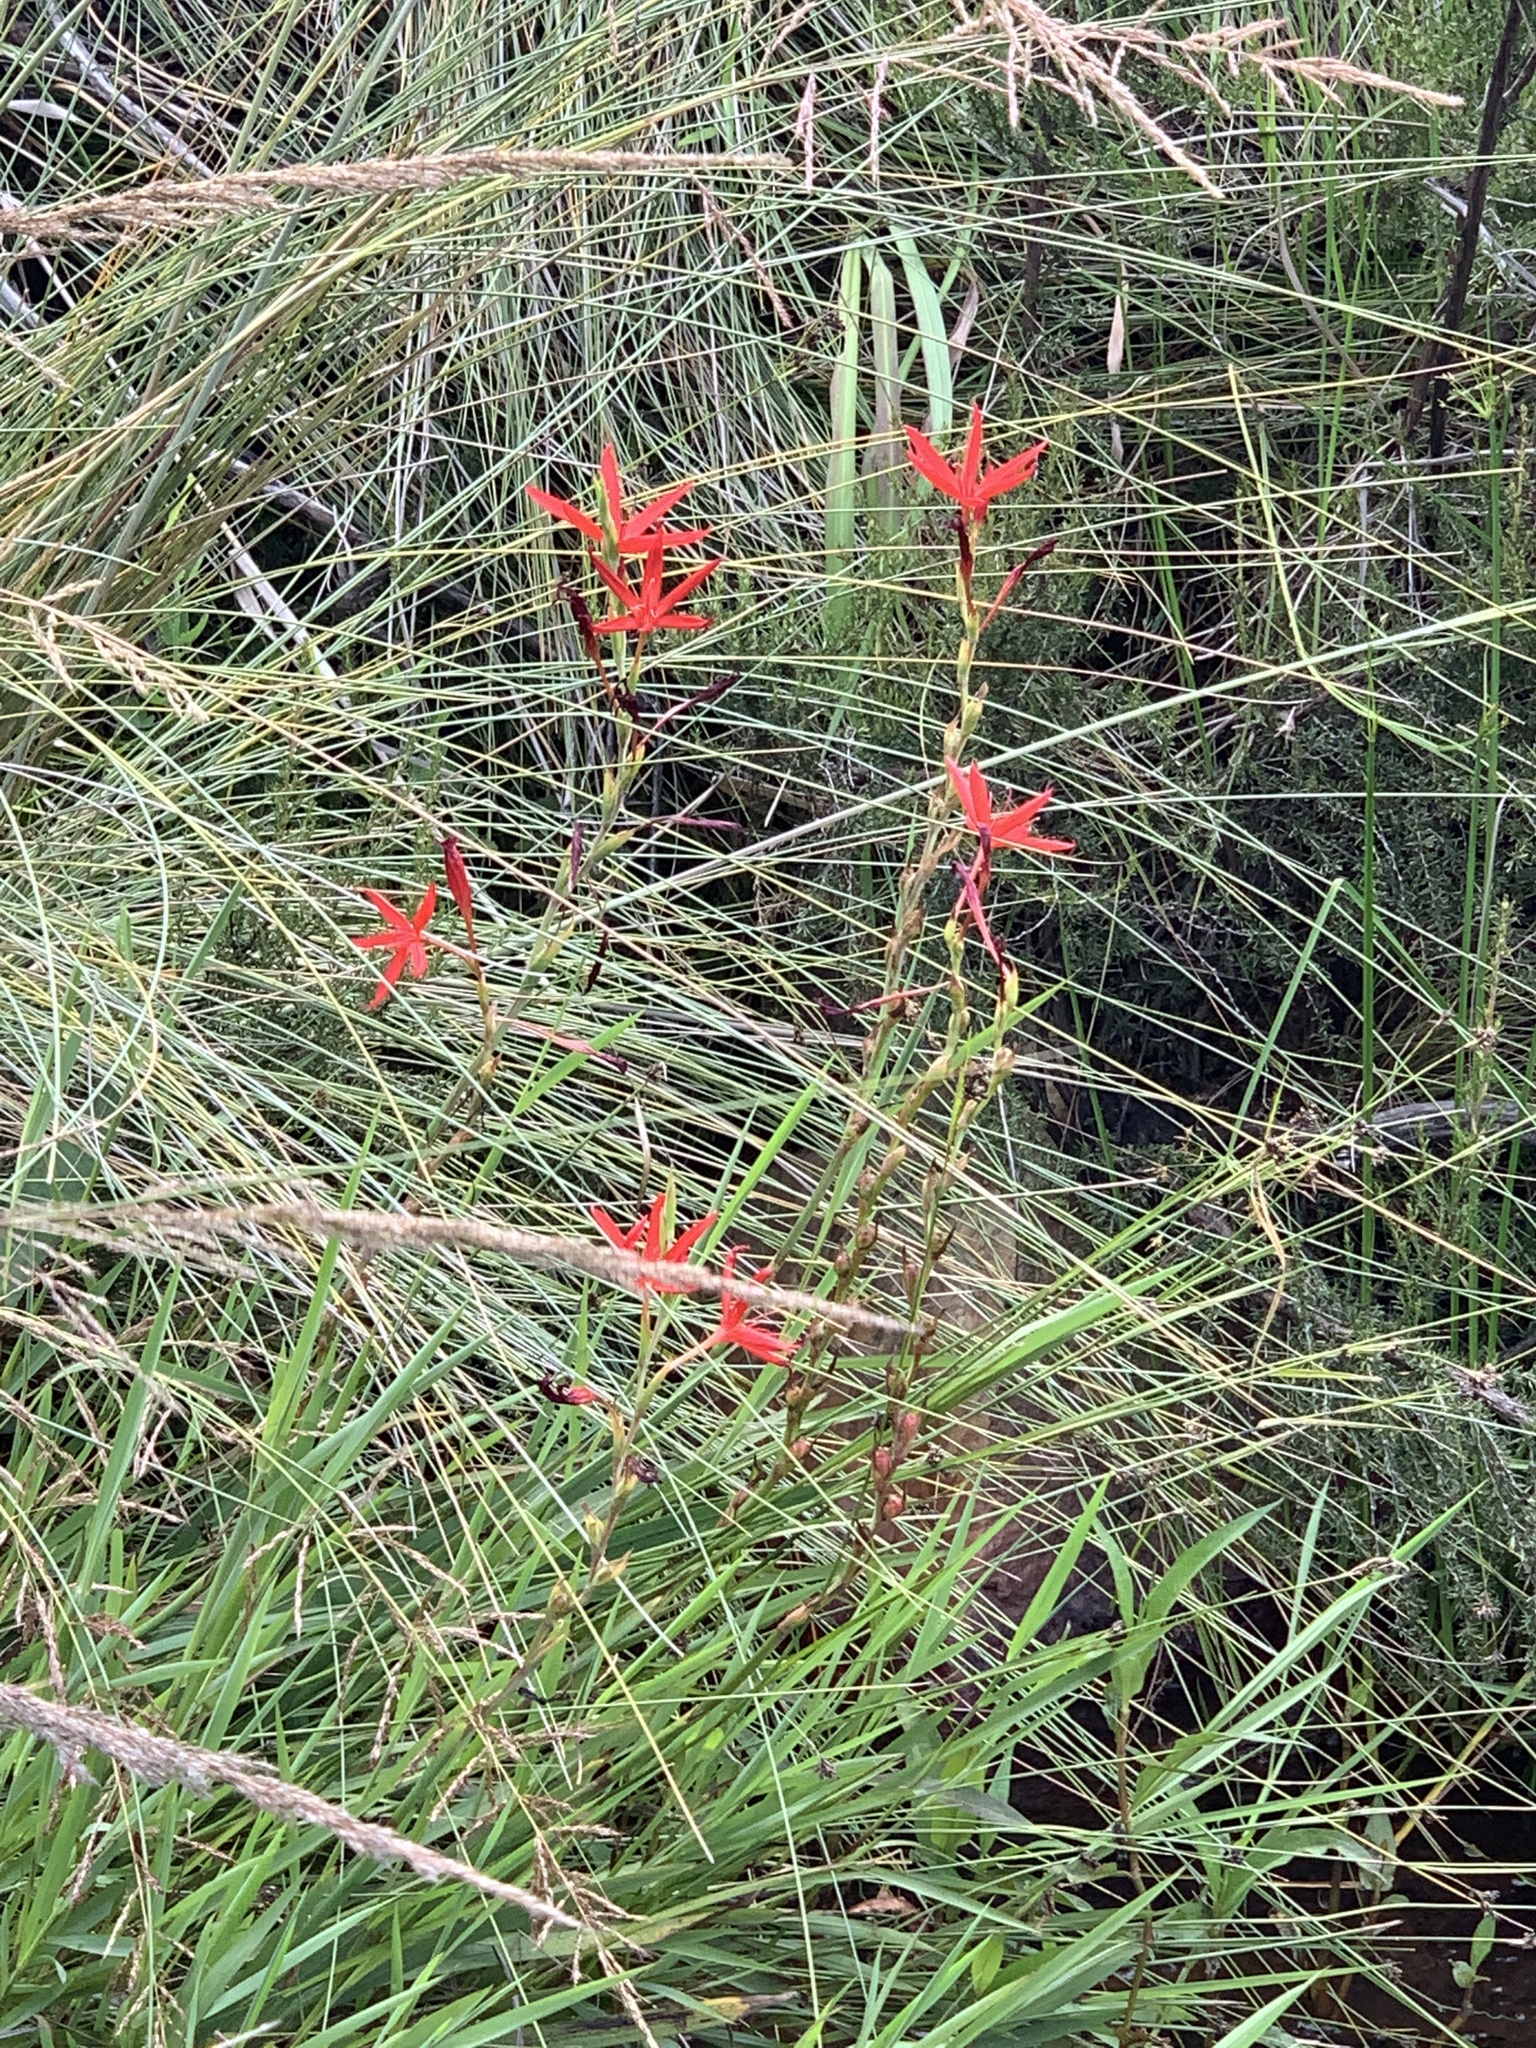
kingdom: Plantae
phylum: Tracheophyta
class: Liliopsida
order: Asparagales
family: Iridaceae
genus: Hesperantha
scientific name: Hesperantha coccinea
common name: River-lily
